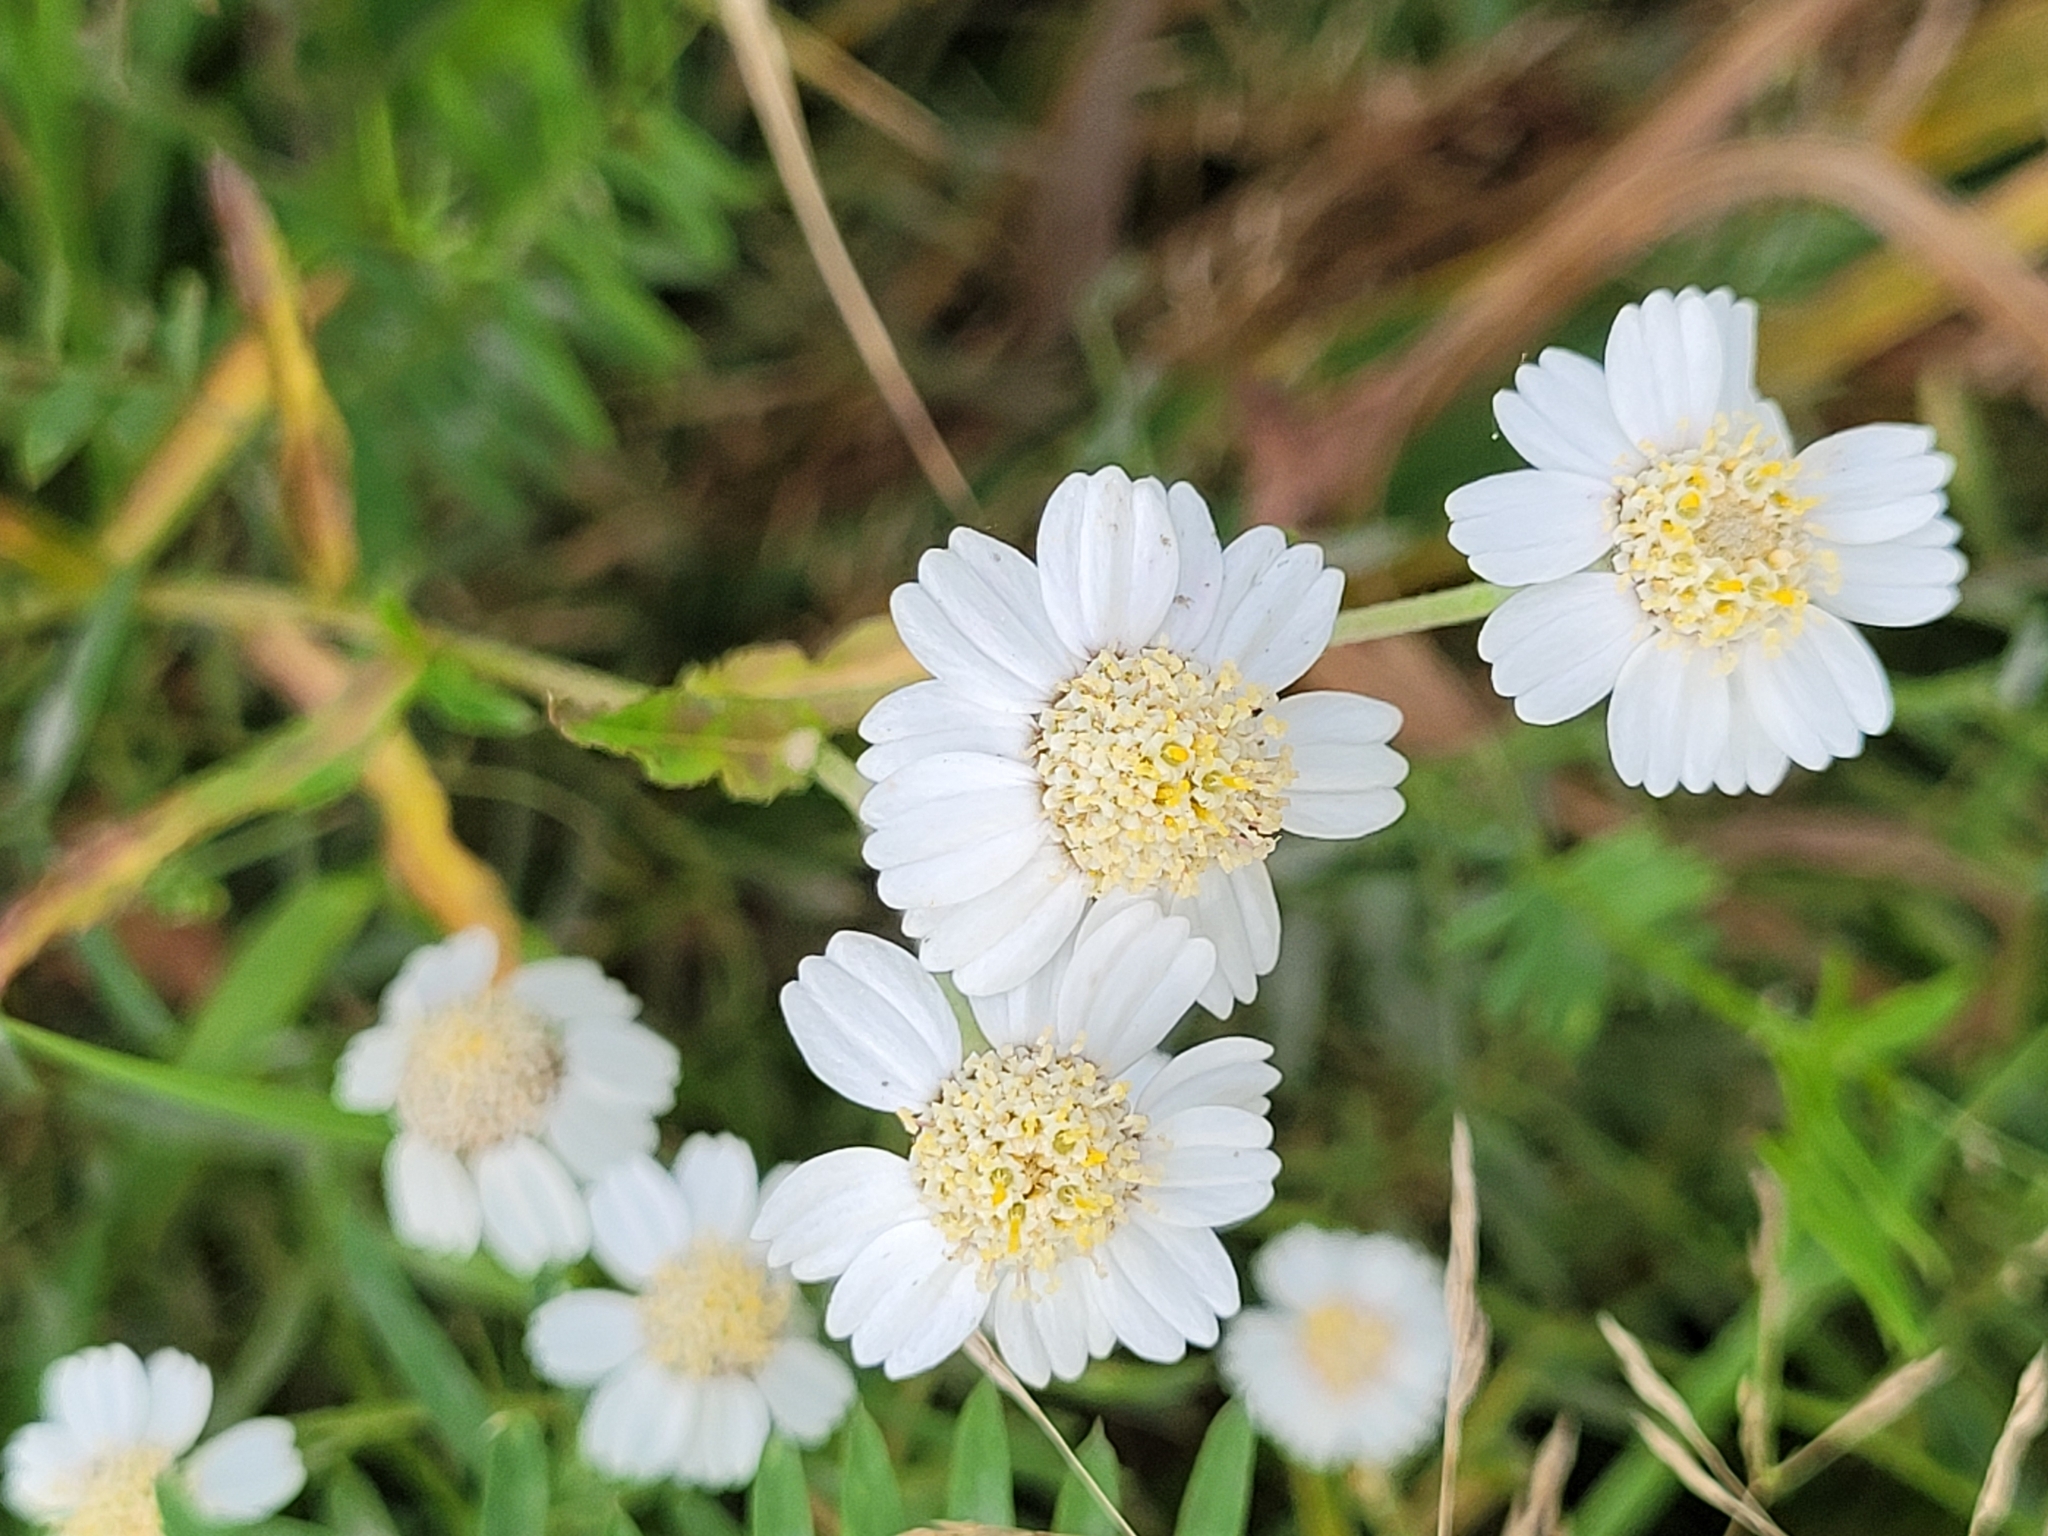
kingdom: Plantae
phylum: Tracheophyta
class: Magnoliopsida
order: Asterales
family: Asteraceae
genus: Achillea
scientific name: Achillea ptarmica
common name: Sneezeweed
